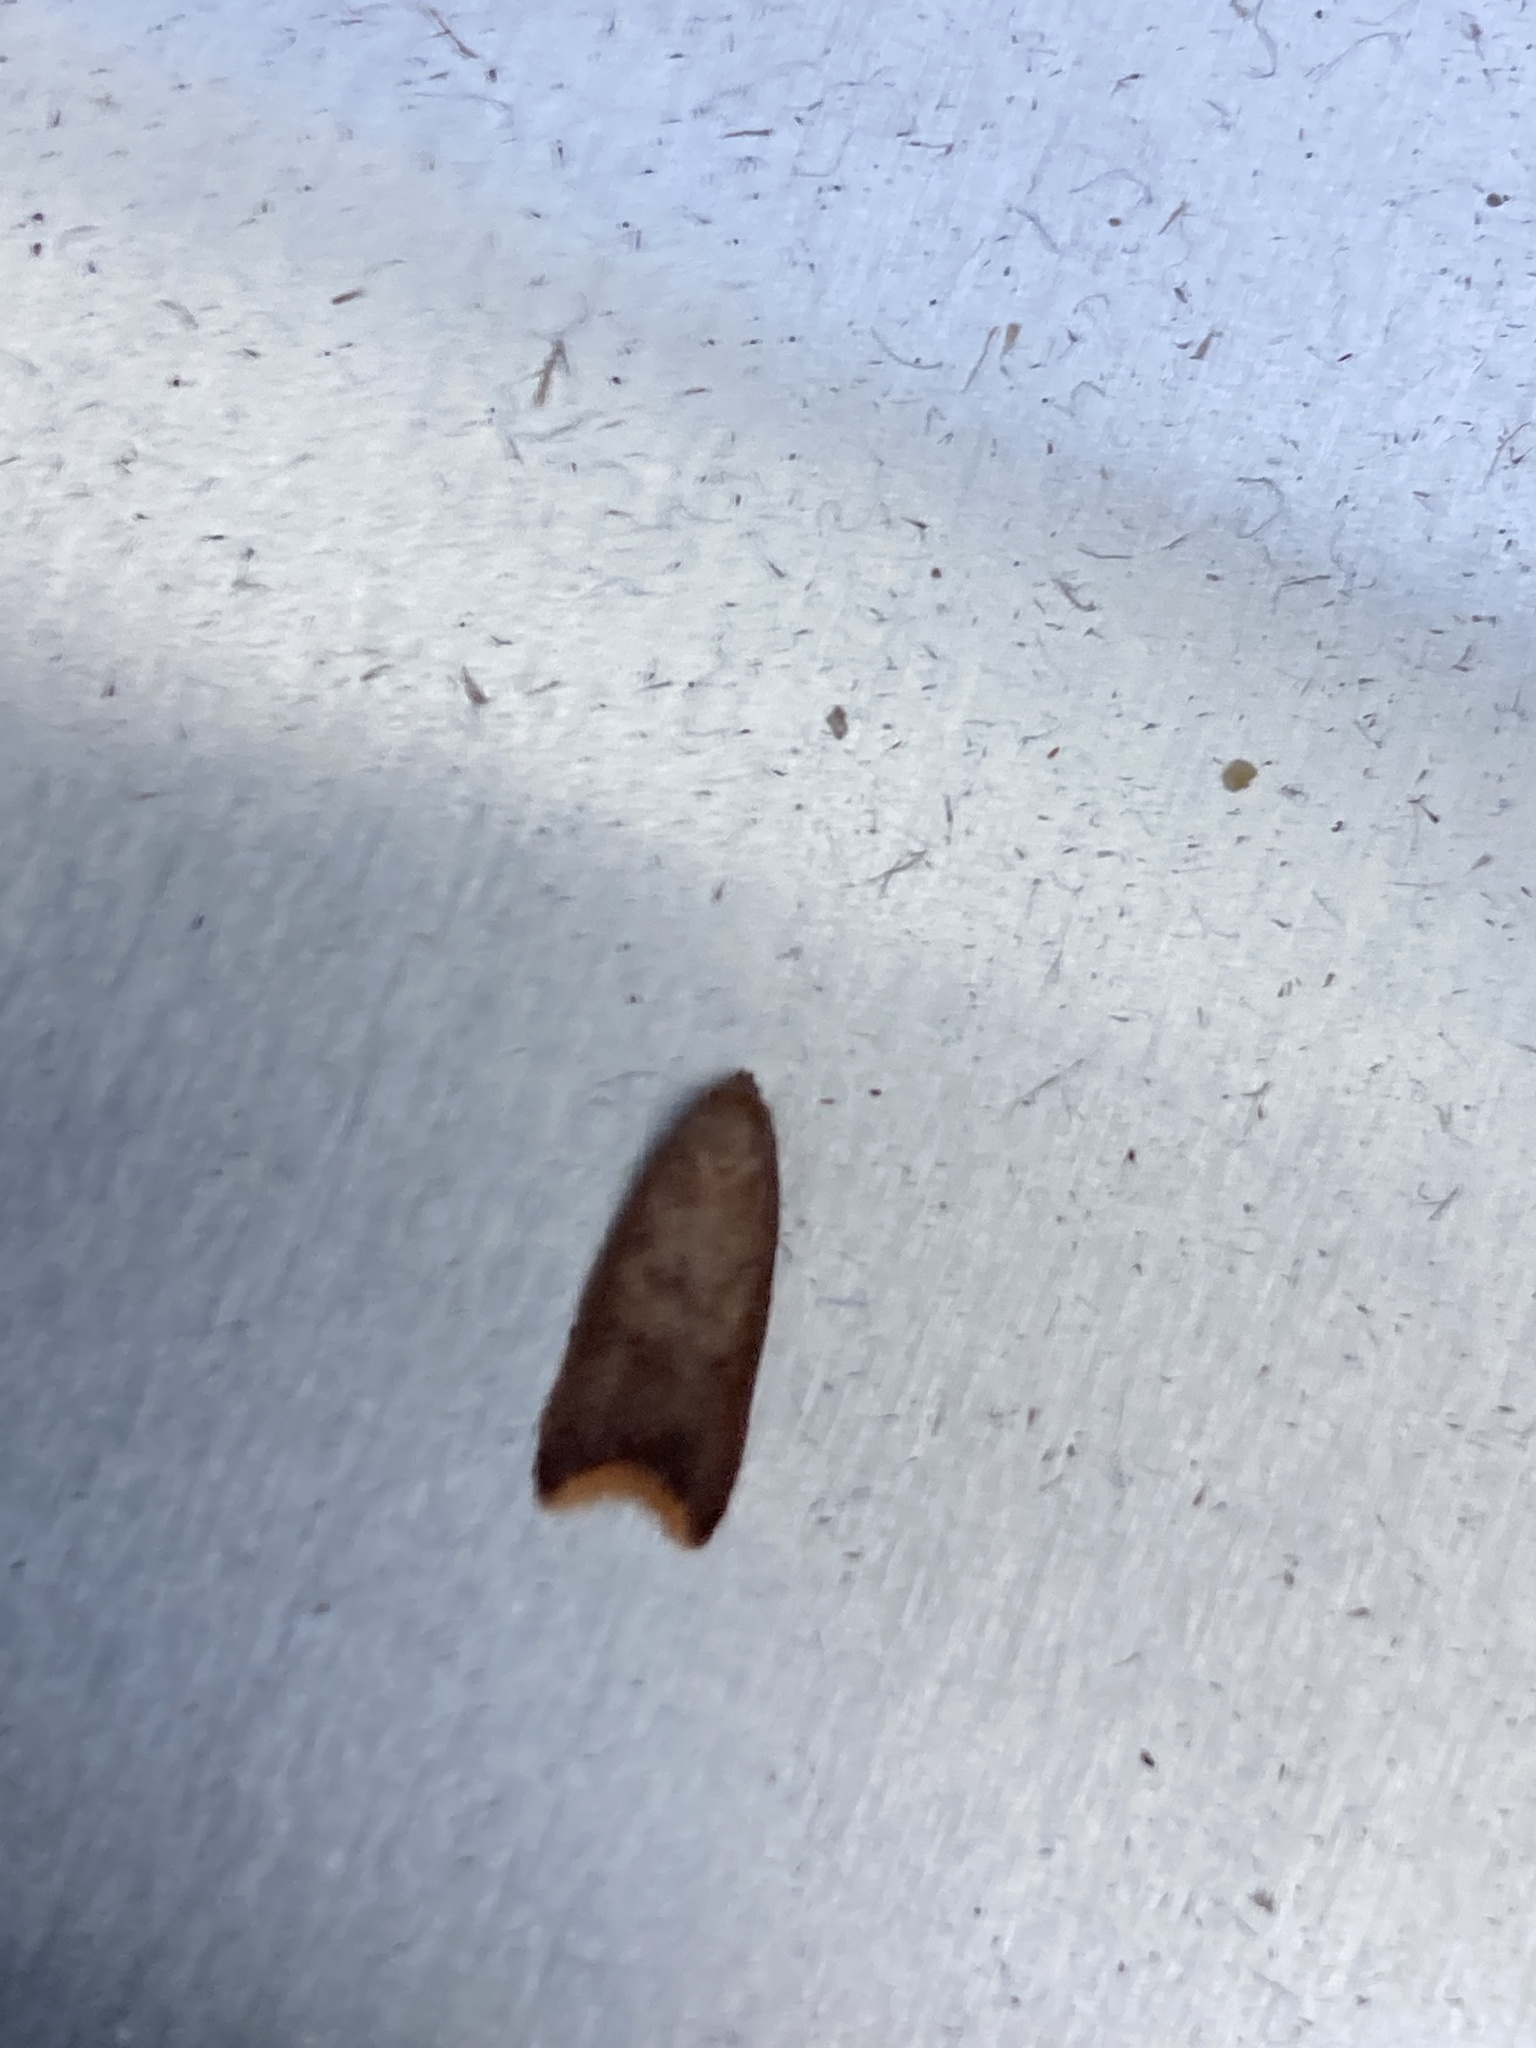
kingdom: Animalia
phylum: Arthropoda
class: Insecta
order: Lepidoptera
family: Oecophoridae
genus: Tachystola
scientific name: Tachystola acroxantha
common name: Ruddy streak
